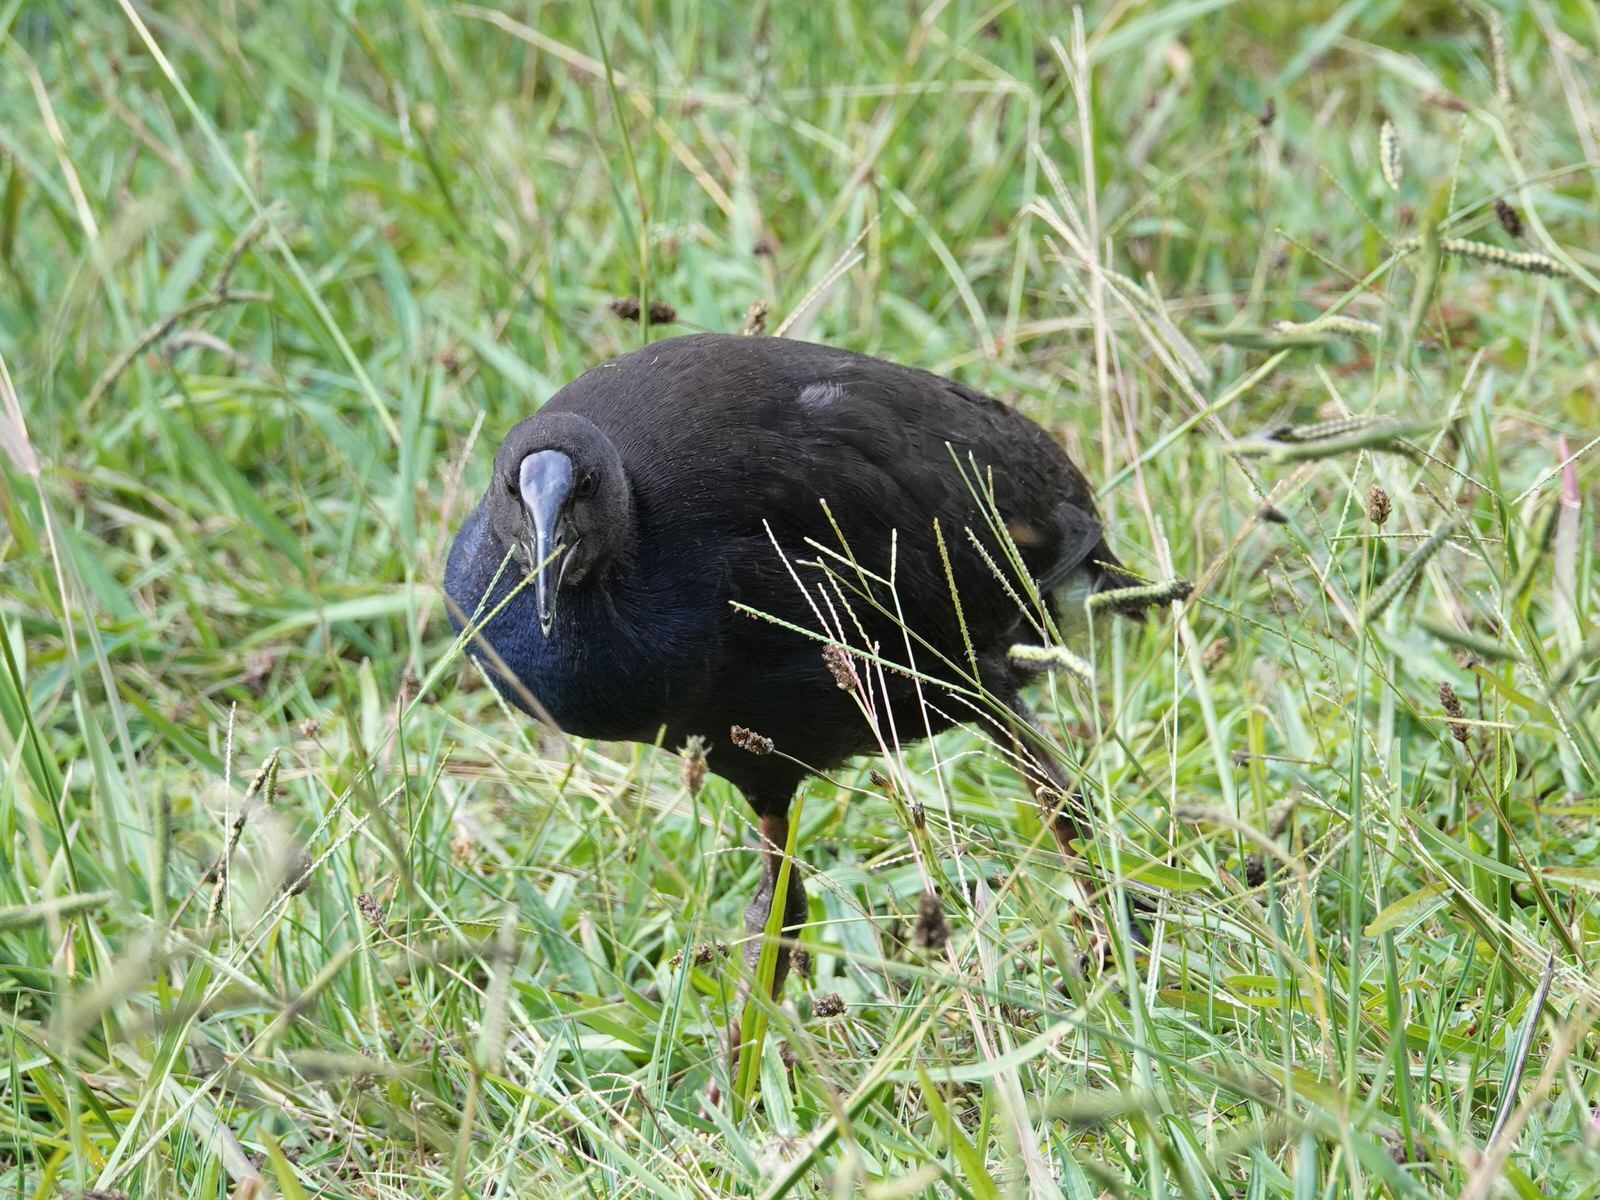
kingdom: Animalia
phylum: Chordata
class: Aves
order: Gruiformes
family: Rallidae
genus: Porphyrio
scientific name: Porphyrio melanotus
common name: Australasian swamphen
